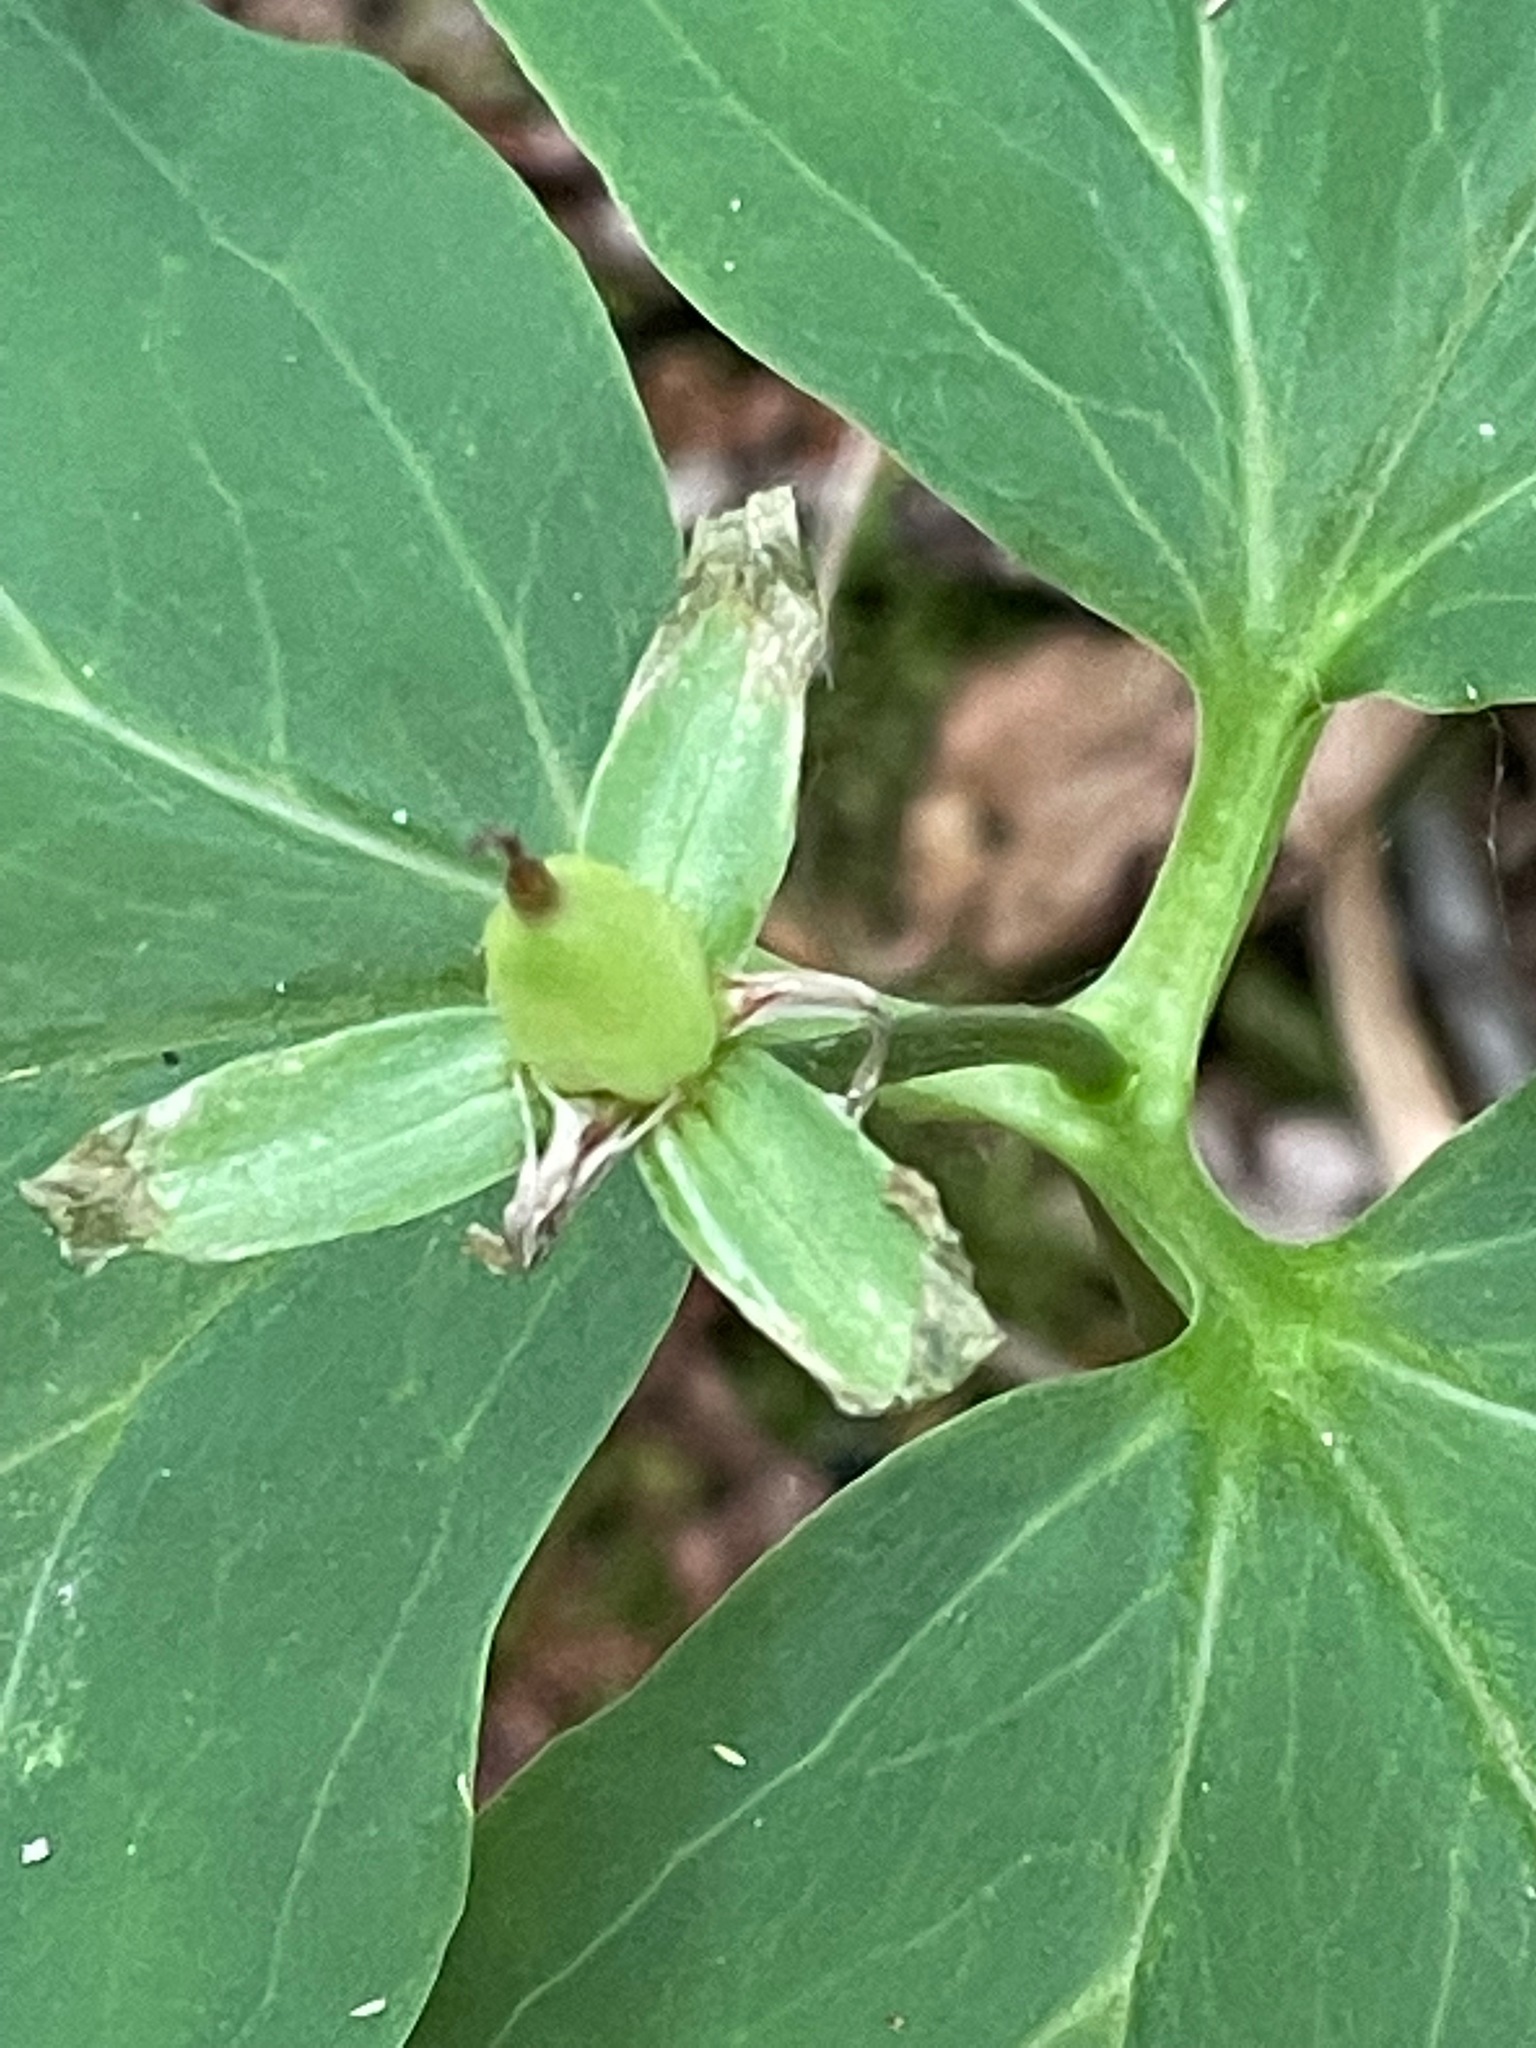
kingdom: Plantae
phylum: Tracheophyta
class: Liliopsida
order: Liliales
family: Melanthiaceae
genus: Trillium
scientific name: Trillium undulatum
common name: Paint trillium
